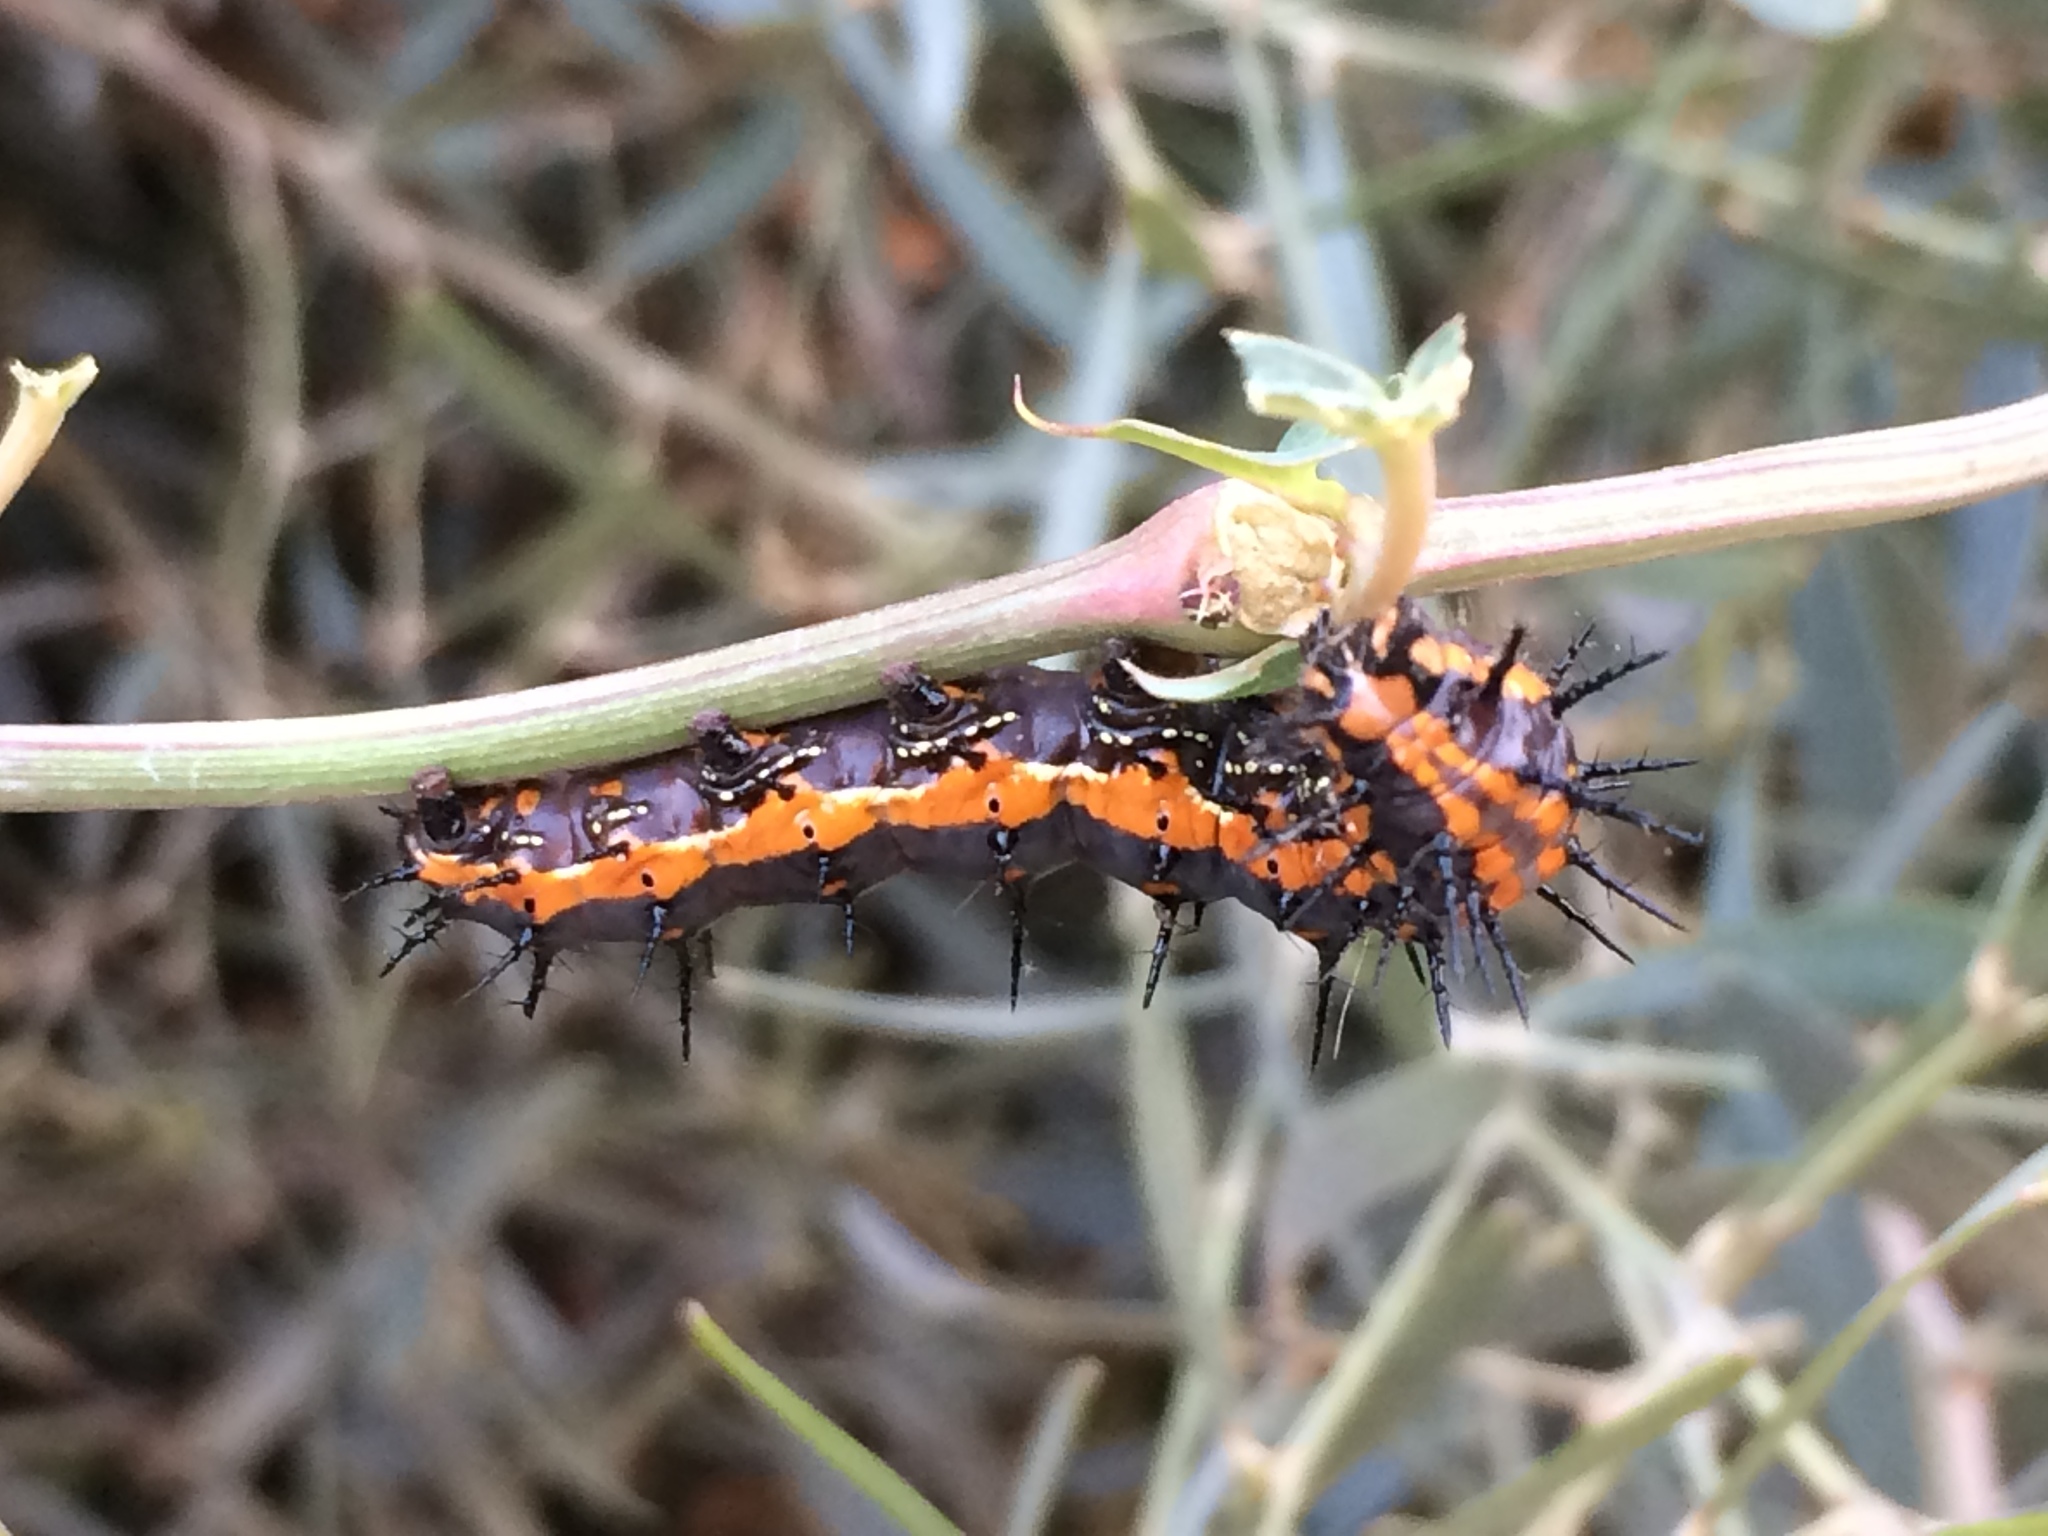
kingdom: Animalia
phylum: Arthropoda
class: Insecta
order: Lepidoptera
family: Nymphalidae
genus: Dione
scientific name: Dione vanillae
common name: Gulf fritillary
